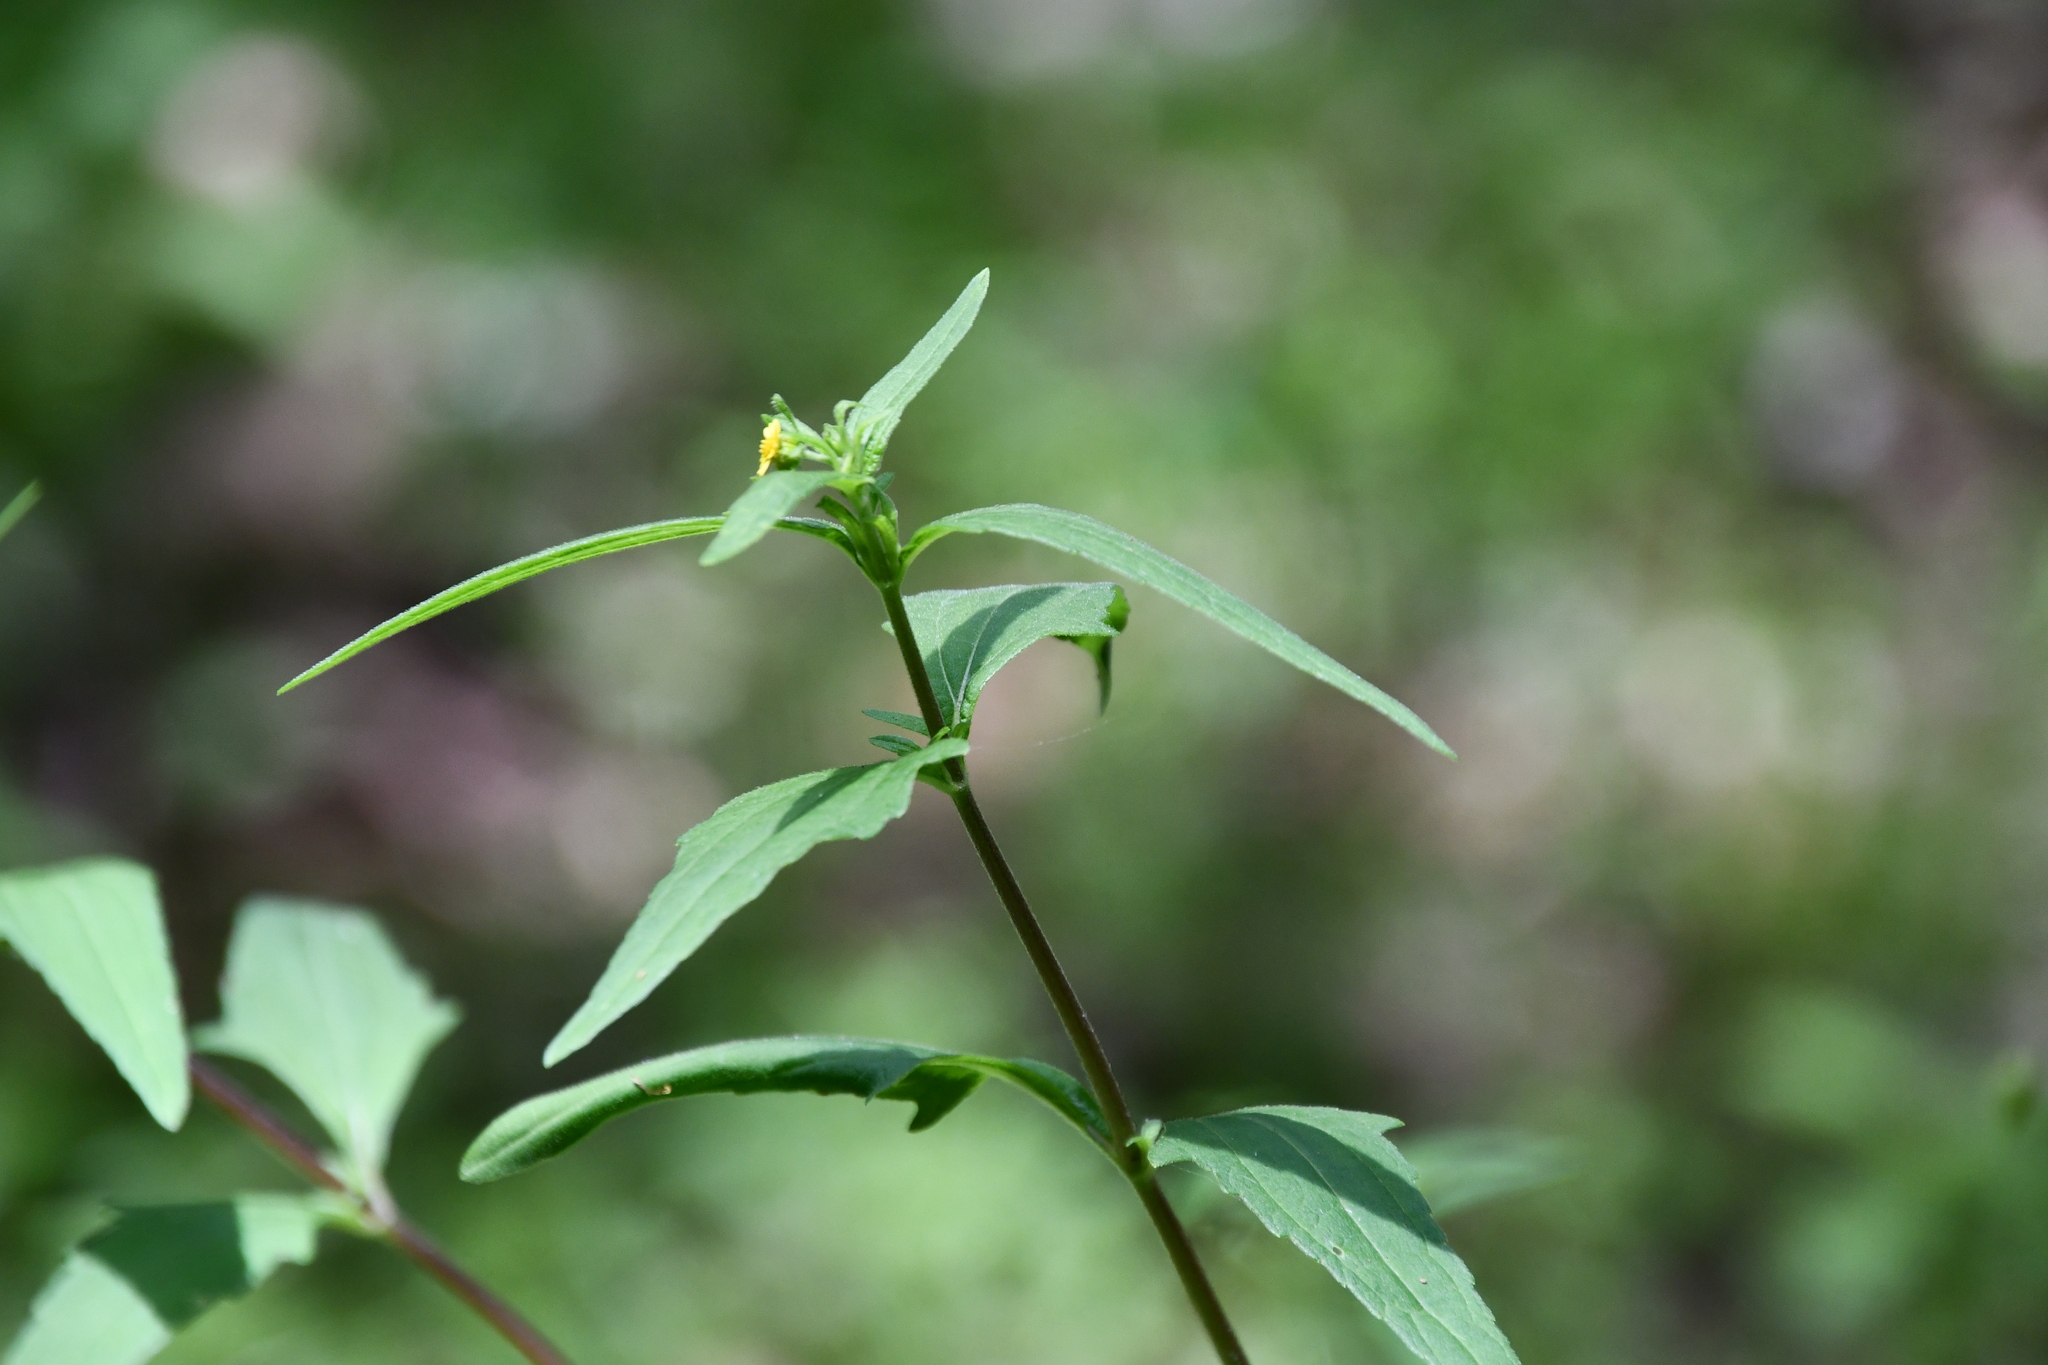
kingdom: Plantae
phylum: Tracheophyta
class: Magnoliopsida
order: Asterales
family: Asteraceae
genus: Sigesbeckia
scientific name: Sigesbeckia orientalis
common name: Eastern st paul's-wort
